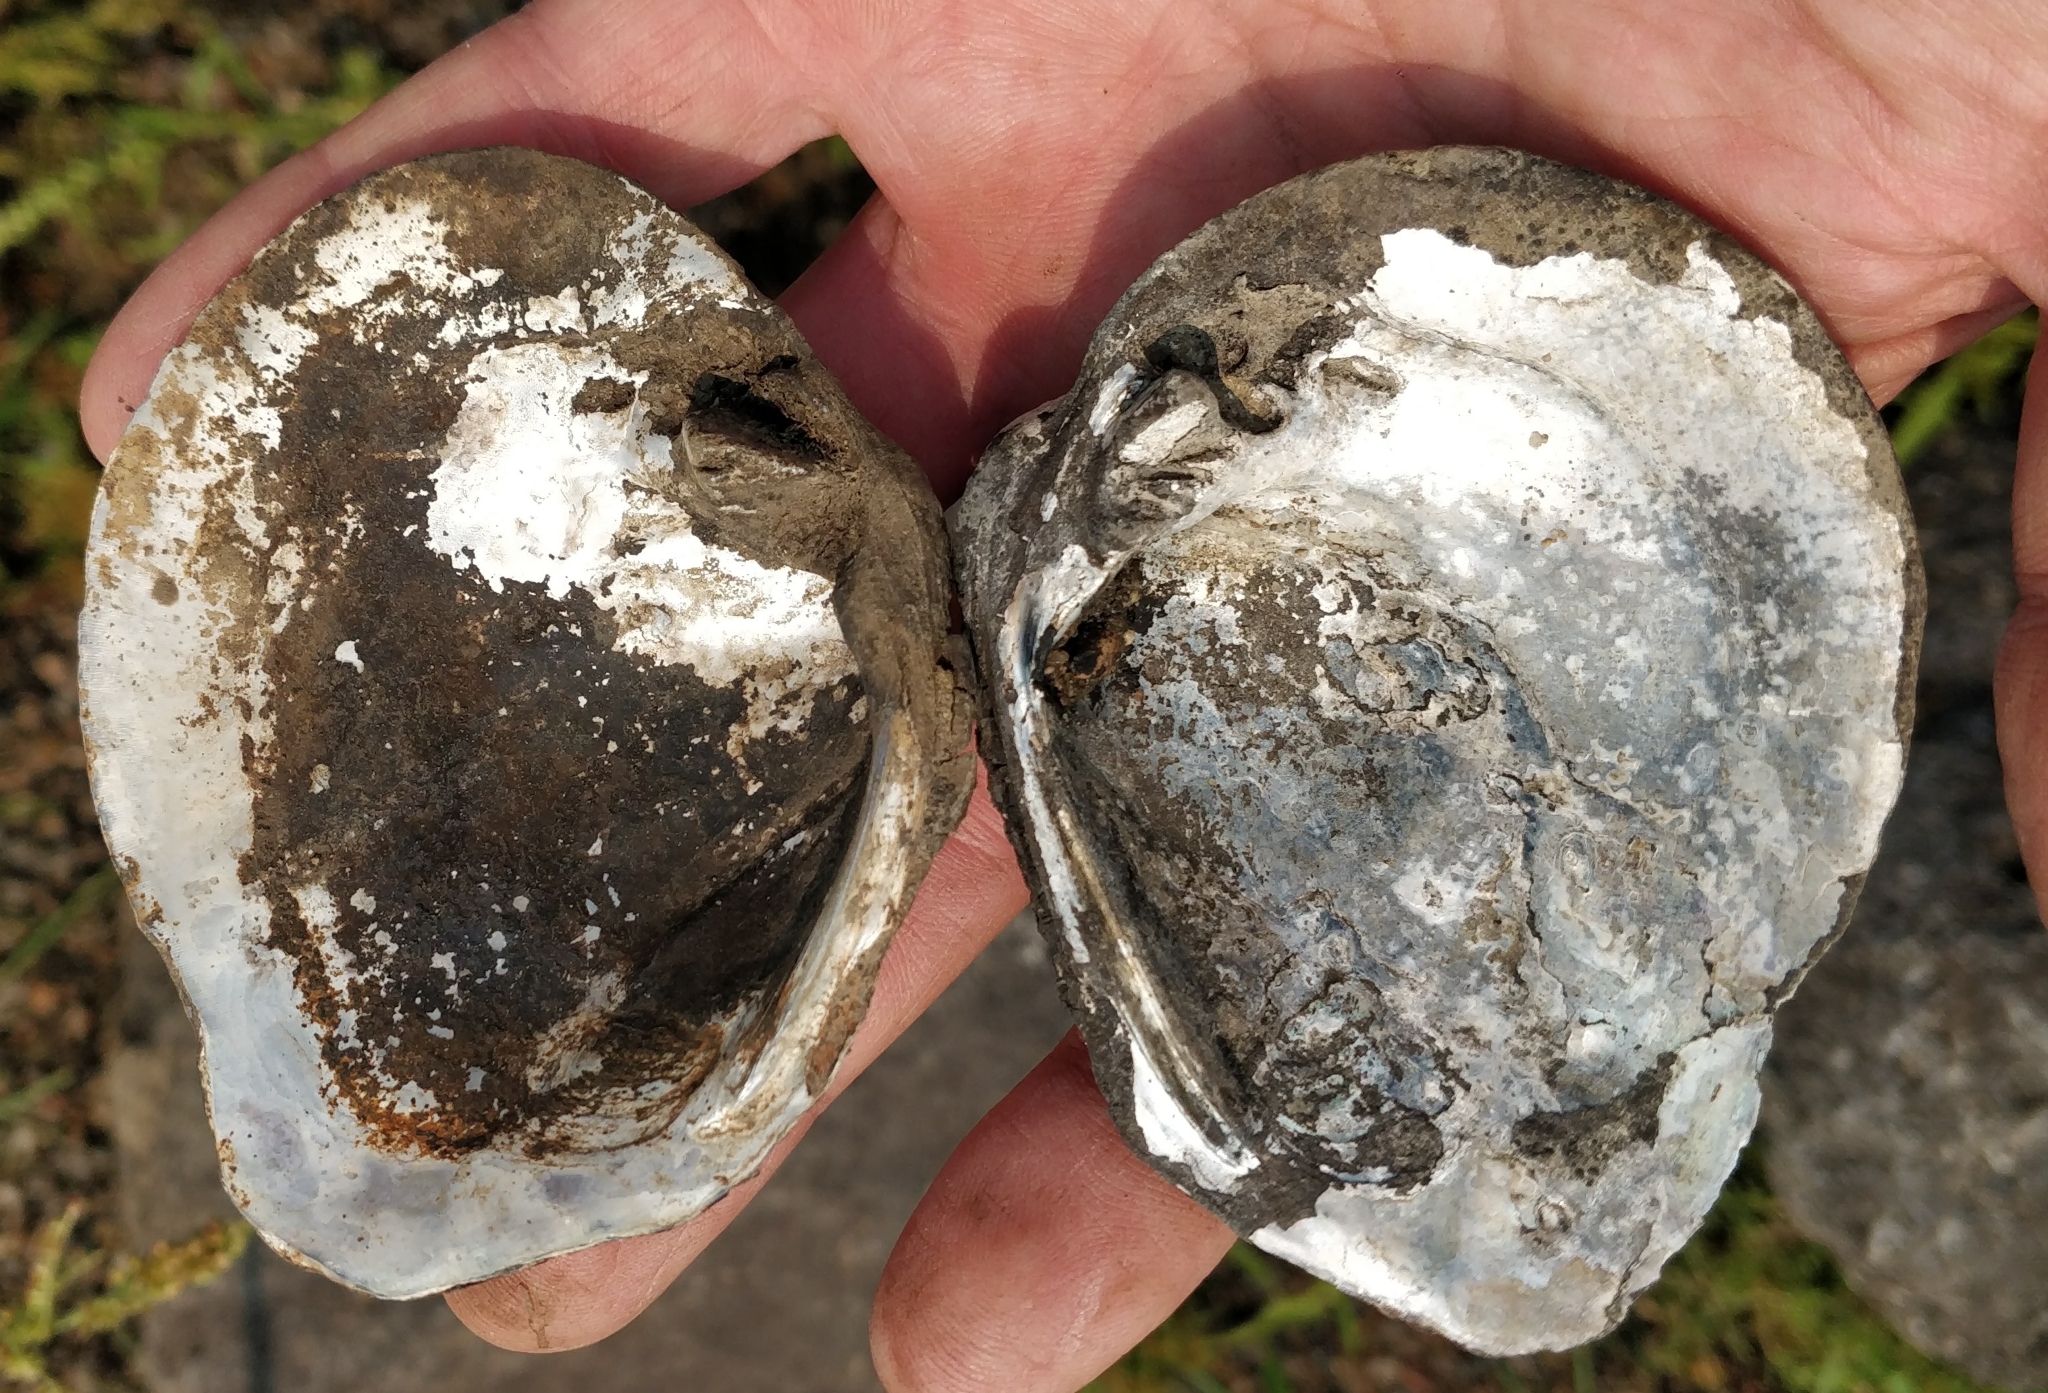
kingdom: Animalia
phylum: Mollusca
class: Bivalvia
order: Unionida
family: Unionidae
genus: Quadrula
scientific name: Quadrula quadrula
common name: Mapleleaf
